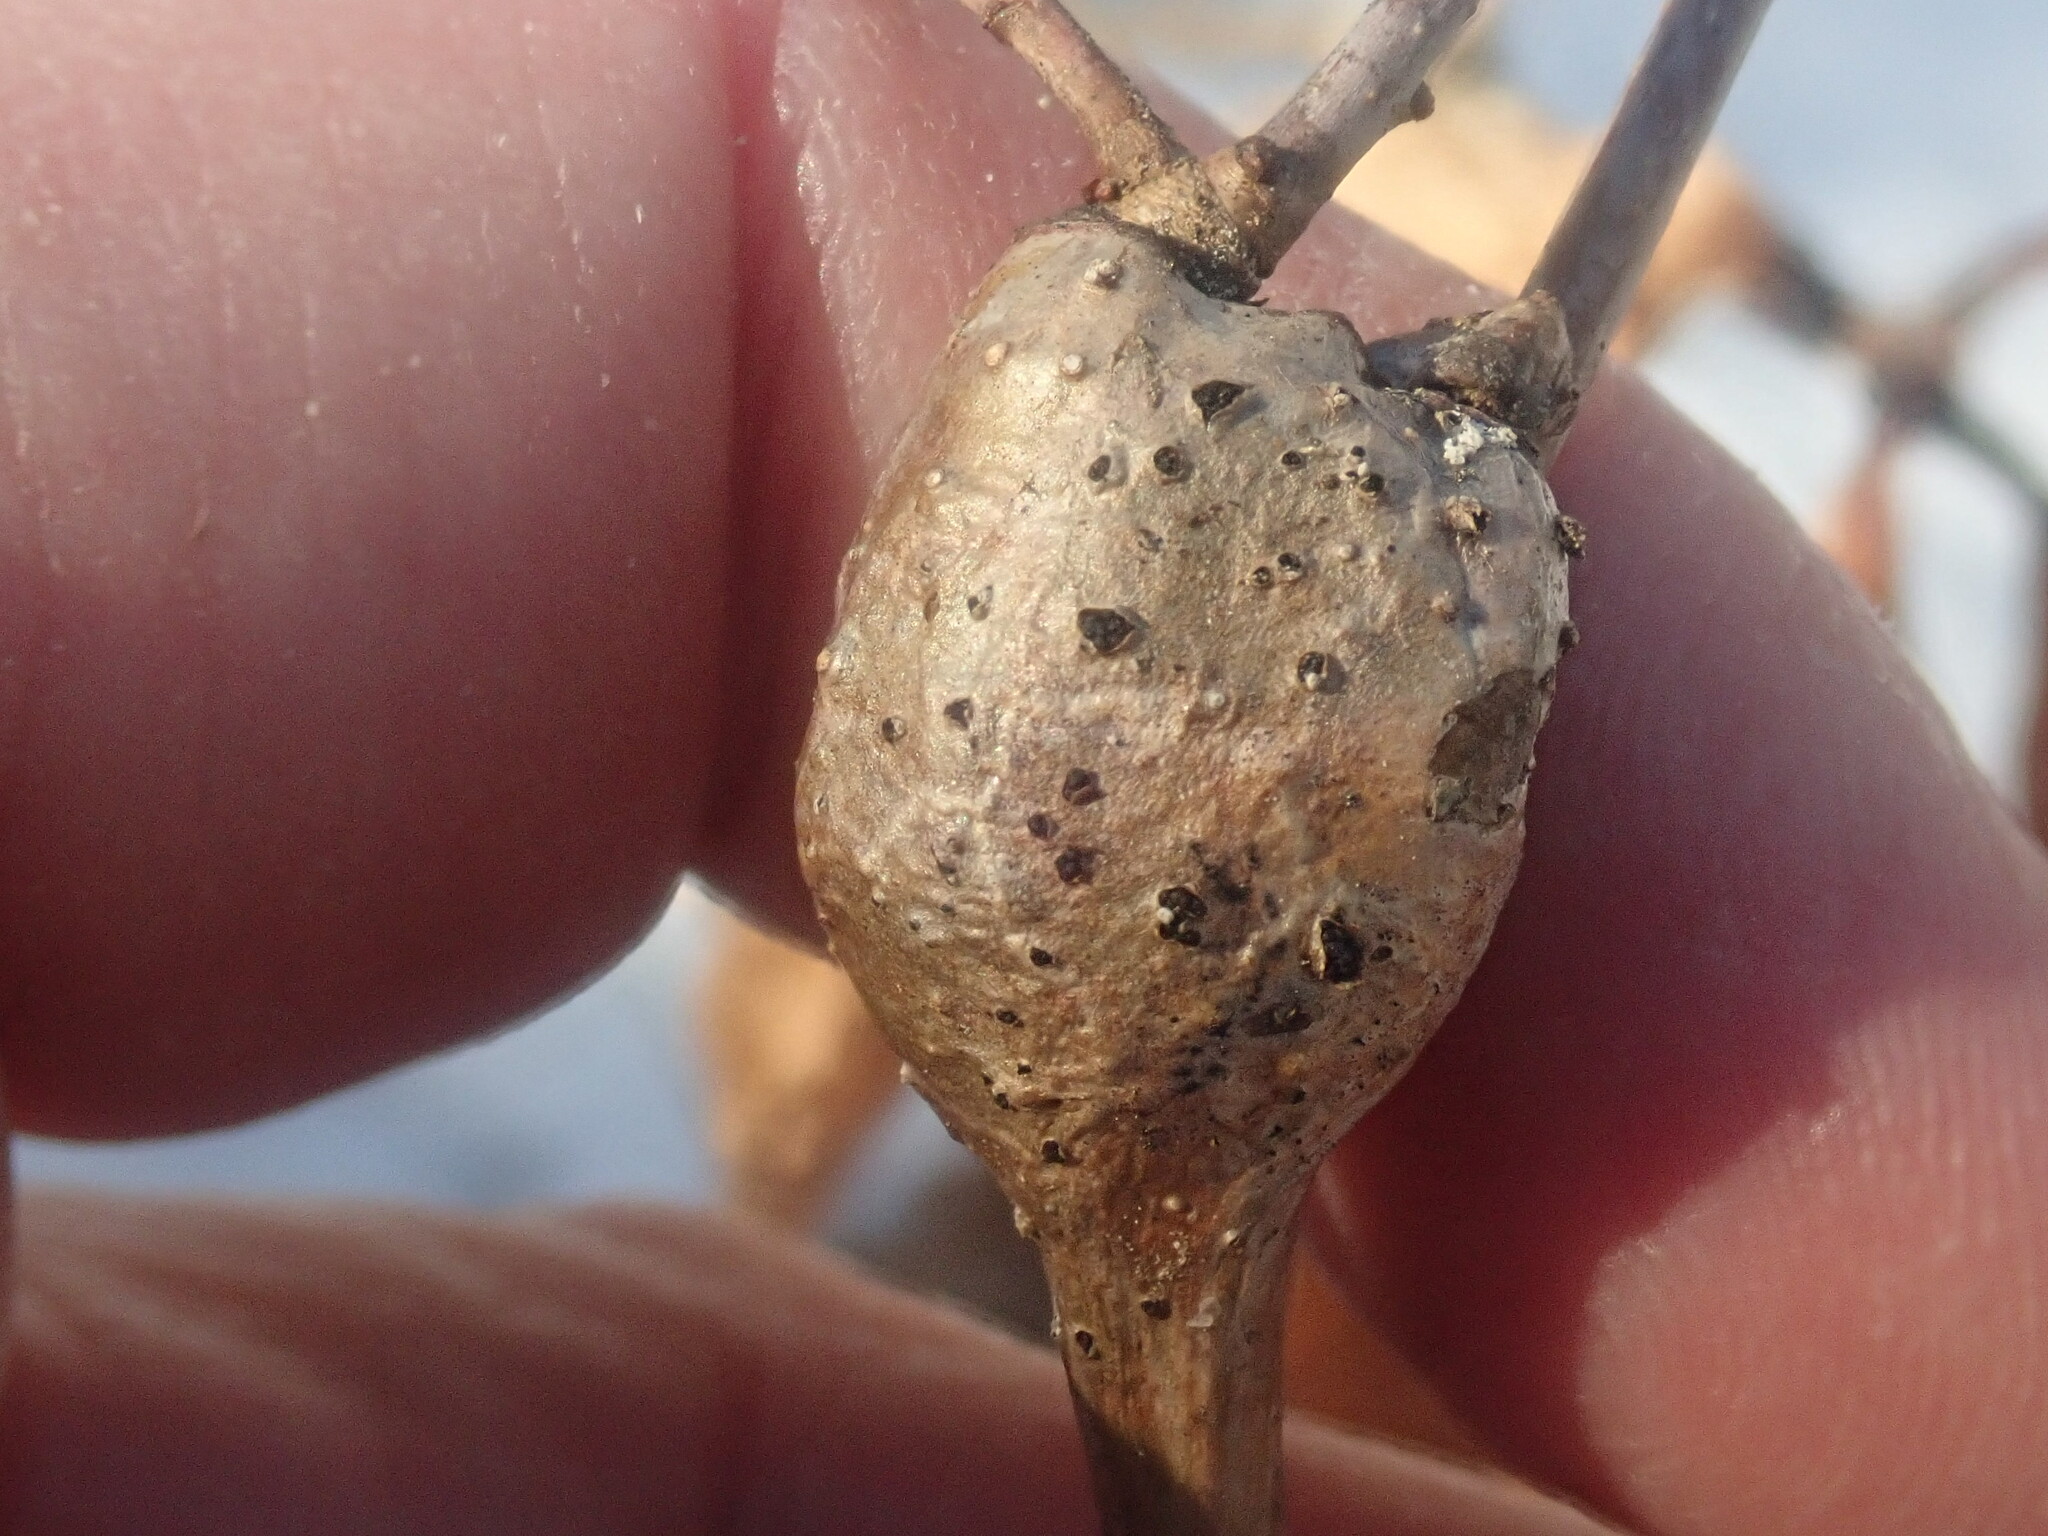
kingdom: Animalia
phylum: Arthropoda
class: Insecta
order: Hymenoptera
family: Cynipidae
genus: Callirhytis
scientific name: Callirhytis clavula
